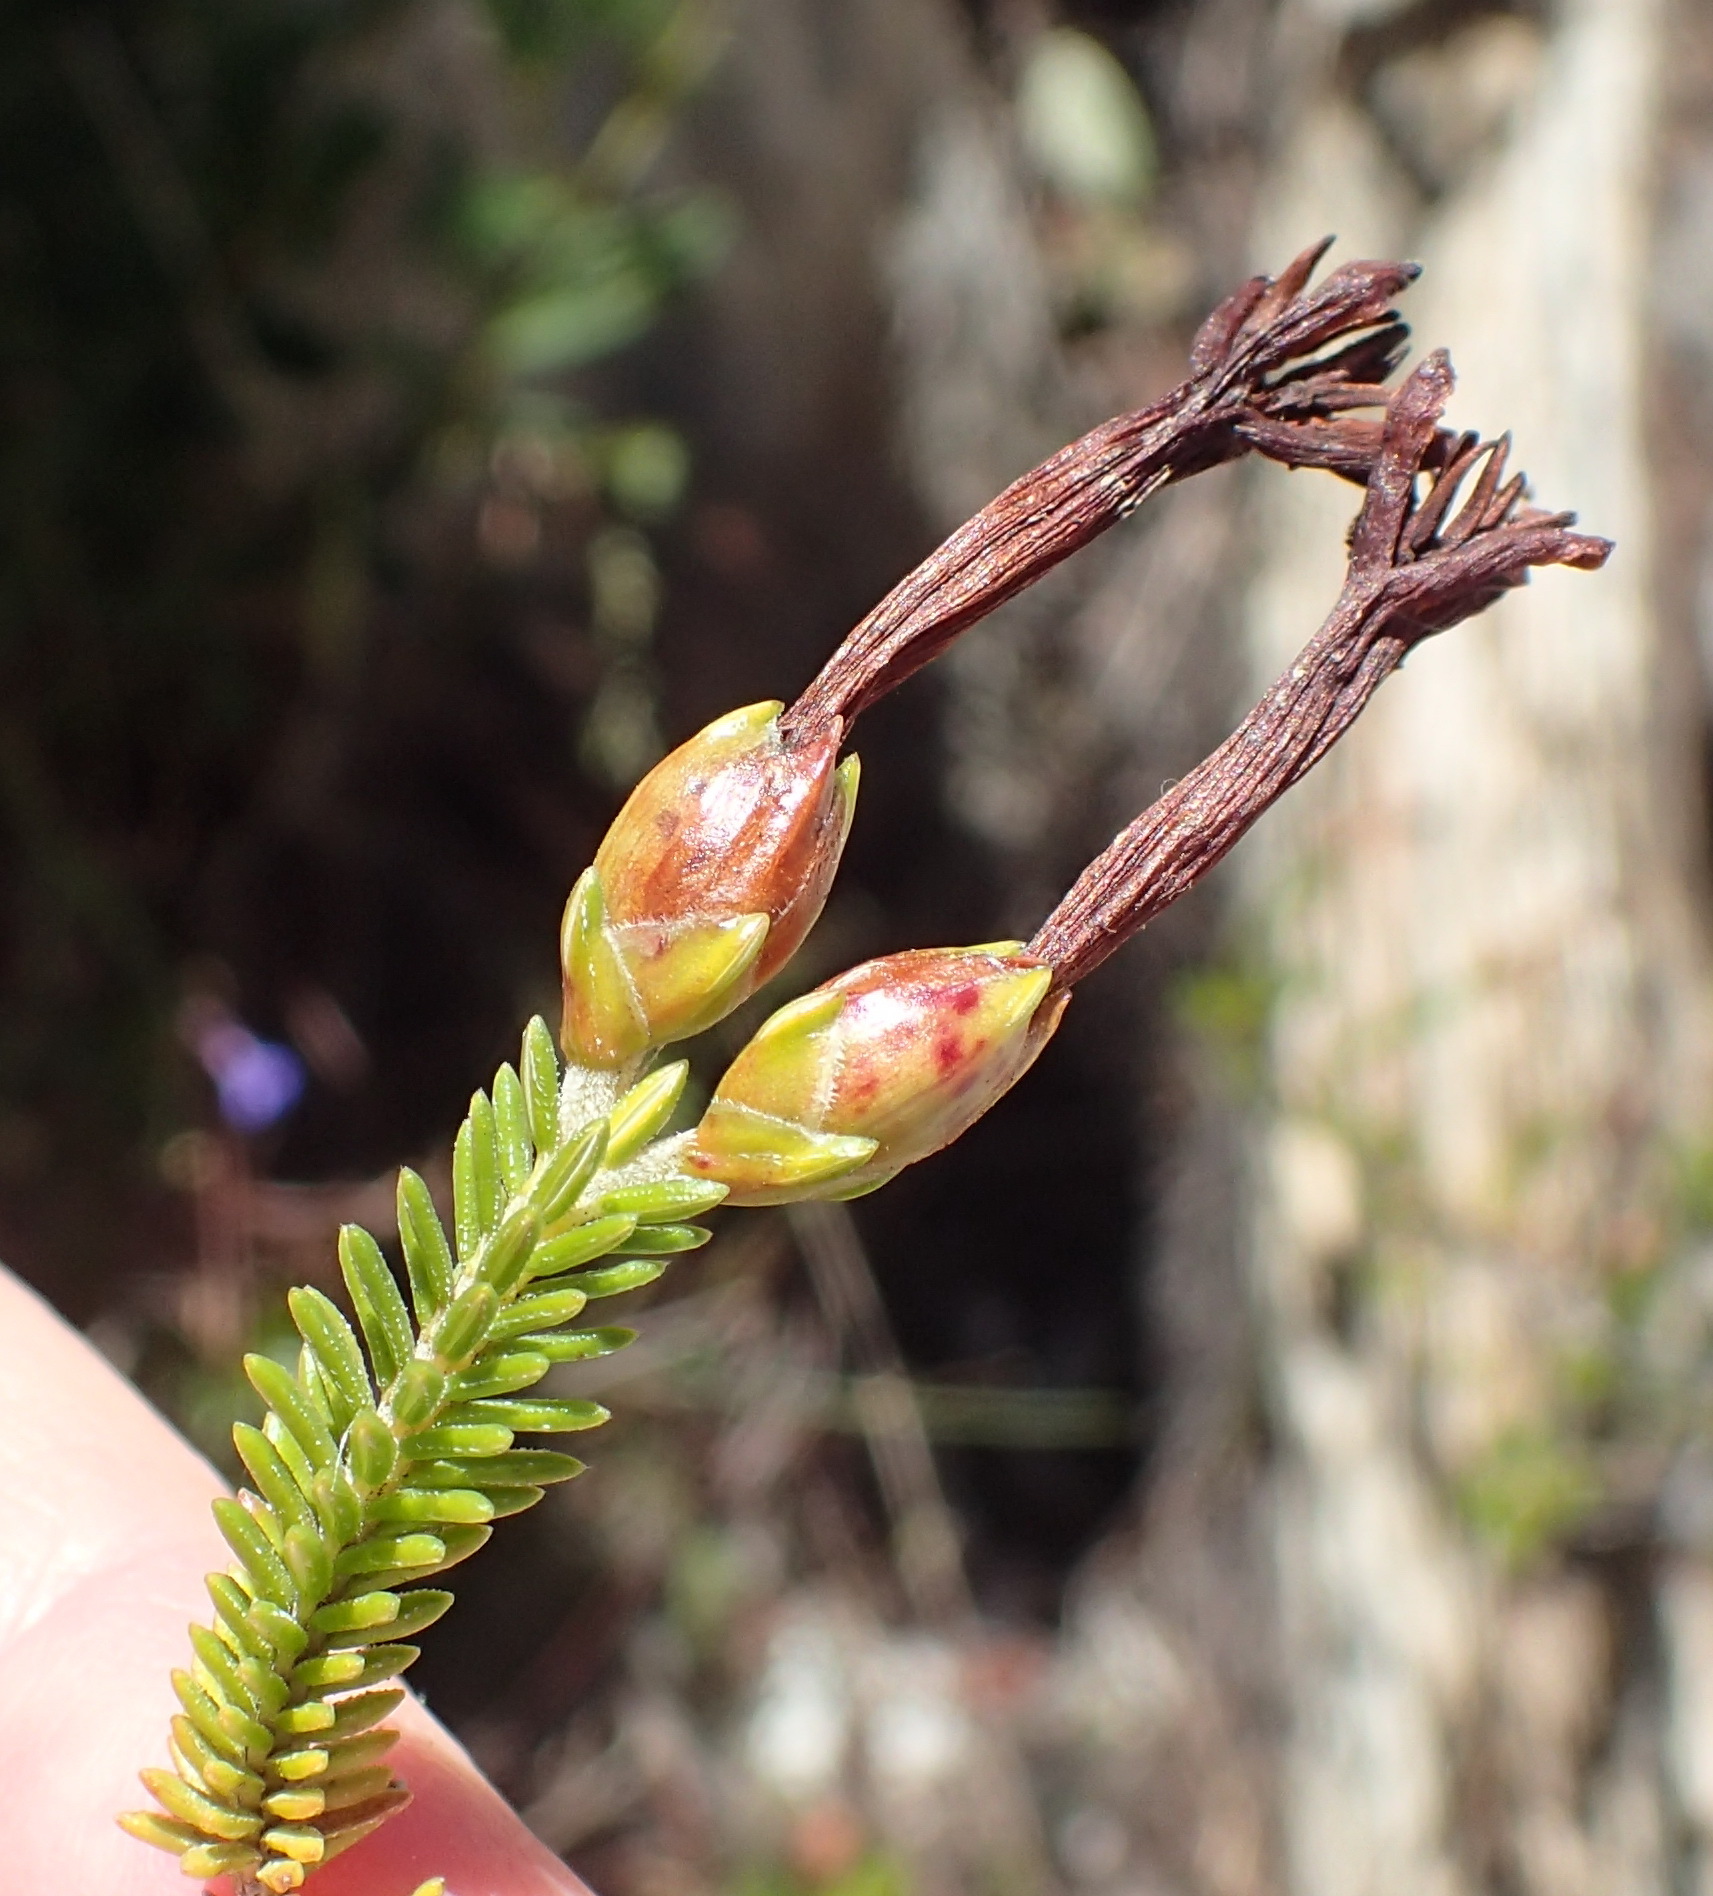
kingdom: Plantae
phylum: Tracheophyta
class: Magnoliopsida
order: Ericales
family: Ericaceae
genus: Erica
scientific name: Erica viridiflora
